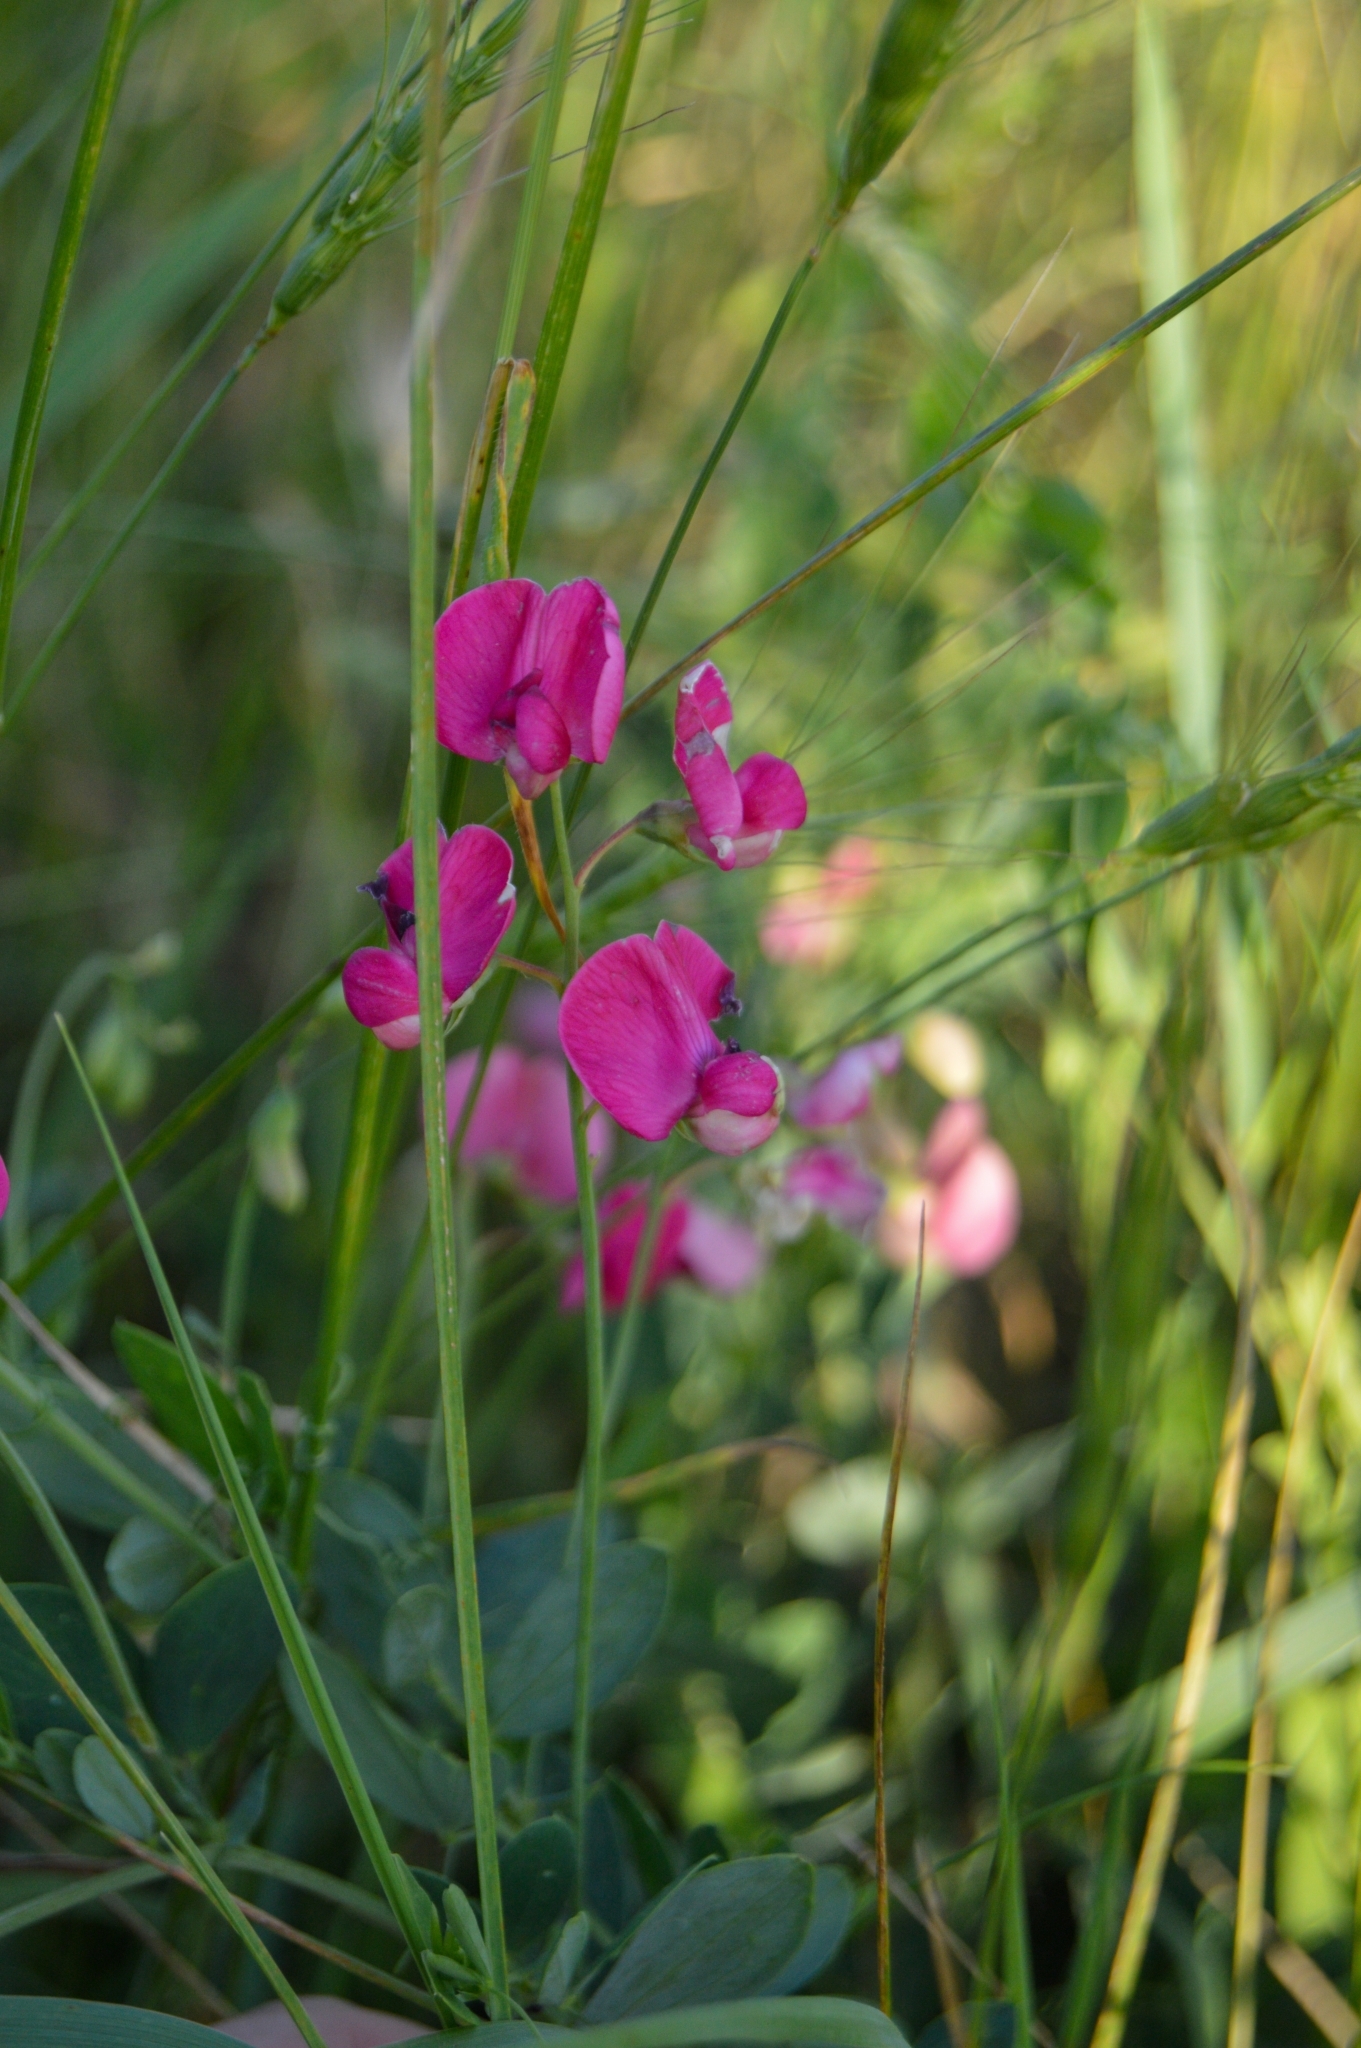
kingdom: Plantae
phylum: Tracheophyta
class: Magnoliopsida
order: Fabales
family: Fabaceae
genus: Lathyrus
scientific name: Lathyrus tuberosus
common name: Tuberous pea
